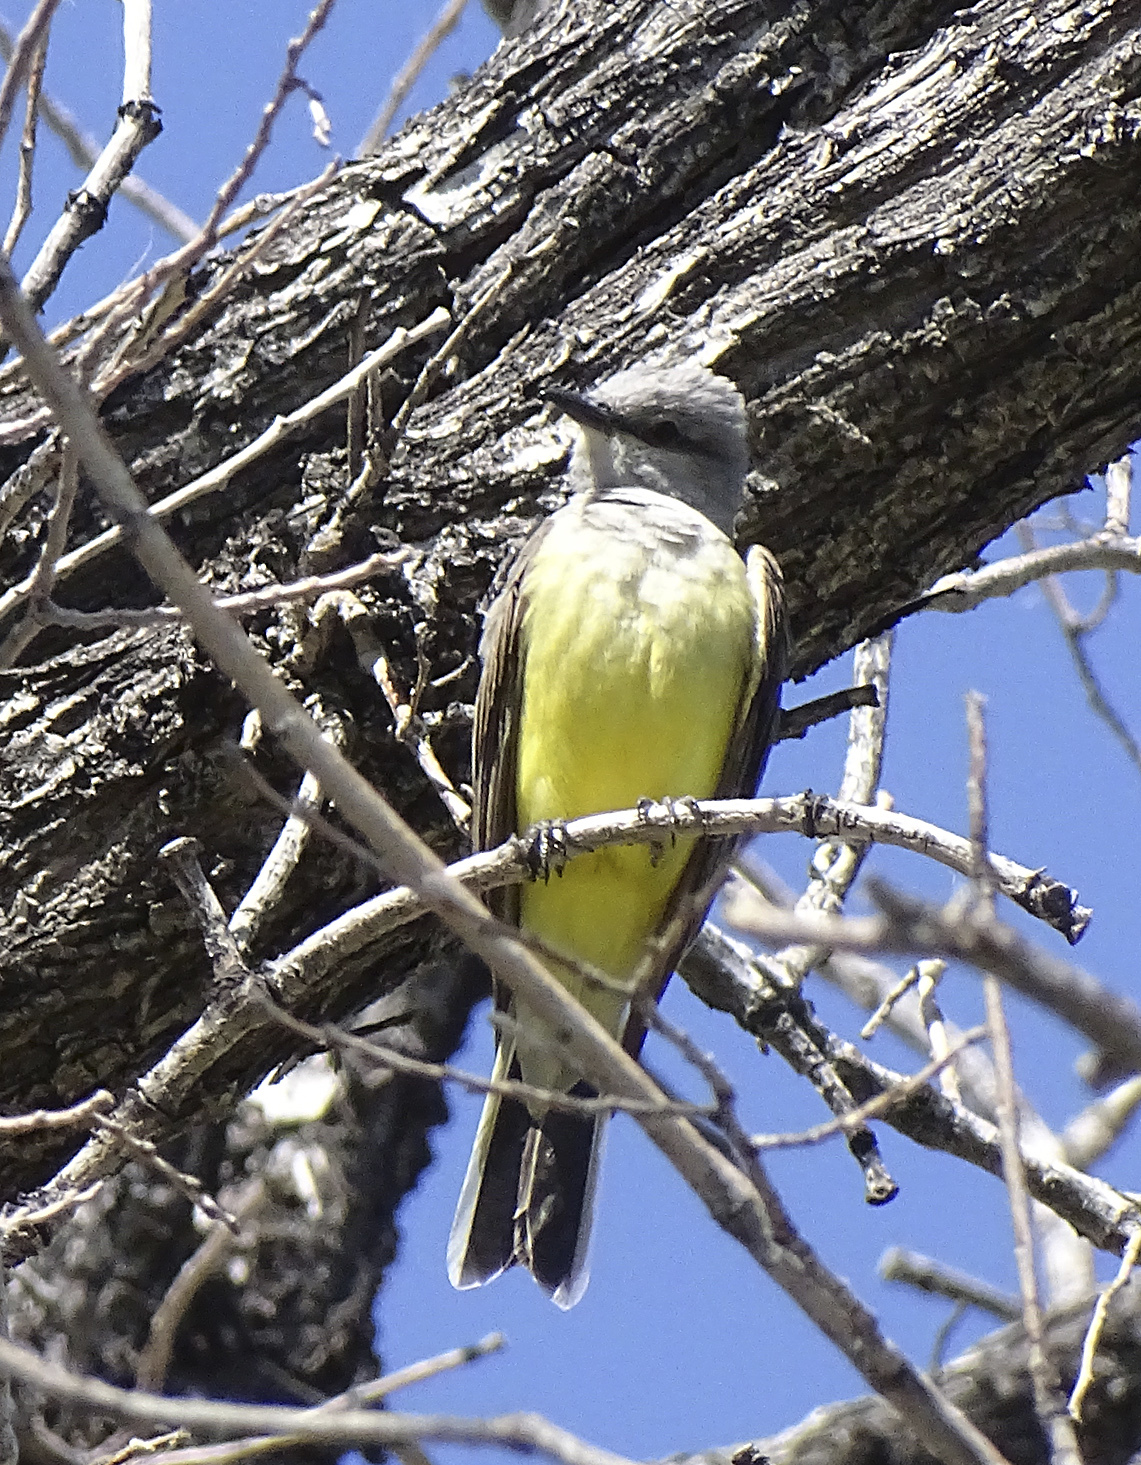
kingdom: Animalia
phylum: Chordata
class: Aves
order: Passeriformes
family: Tyrannidae
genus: Tyrannus
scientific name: Tyrannus verticalis
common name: Western kingbird
